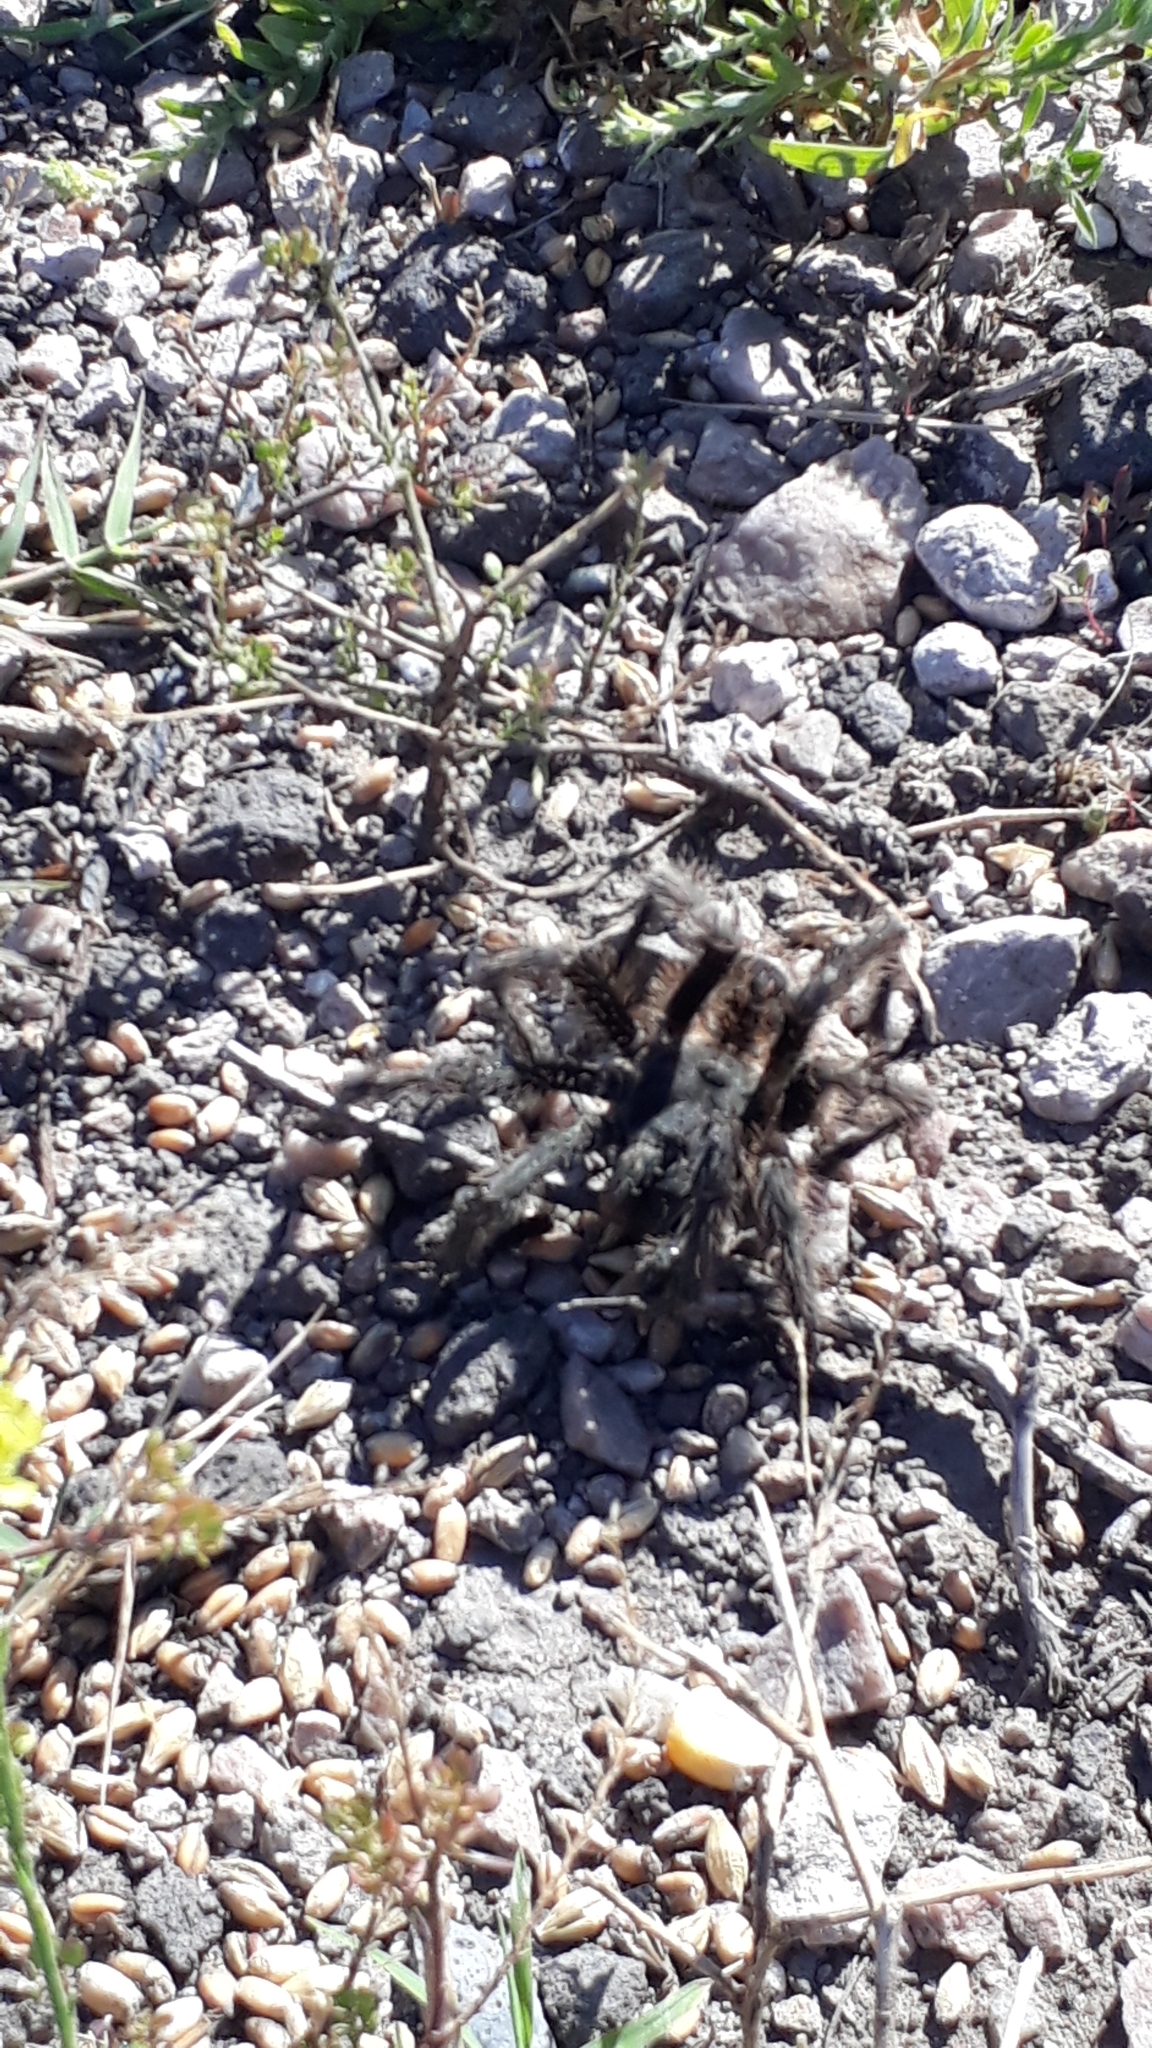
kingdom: Animalia
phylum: Arthropoda
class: Arachnida
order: Araneae
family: Theraphosidae
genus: Grammostola
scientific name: Grammostola doeringi
